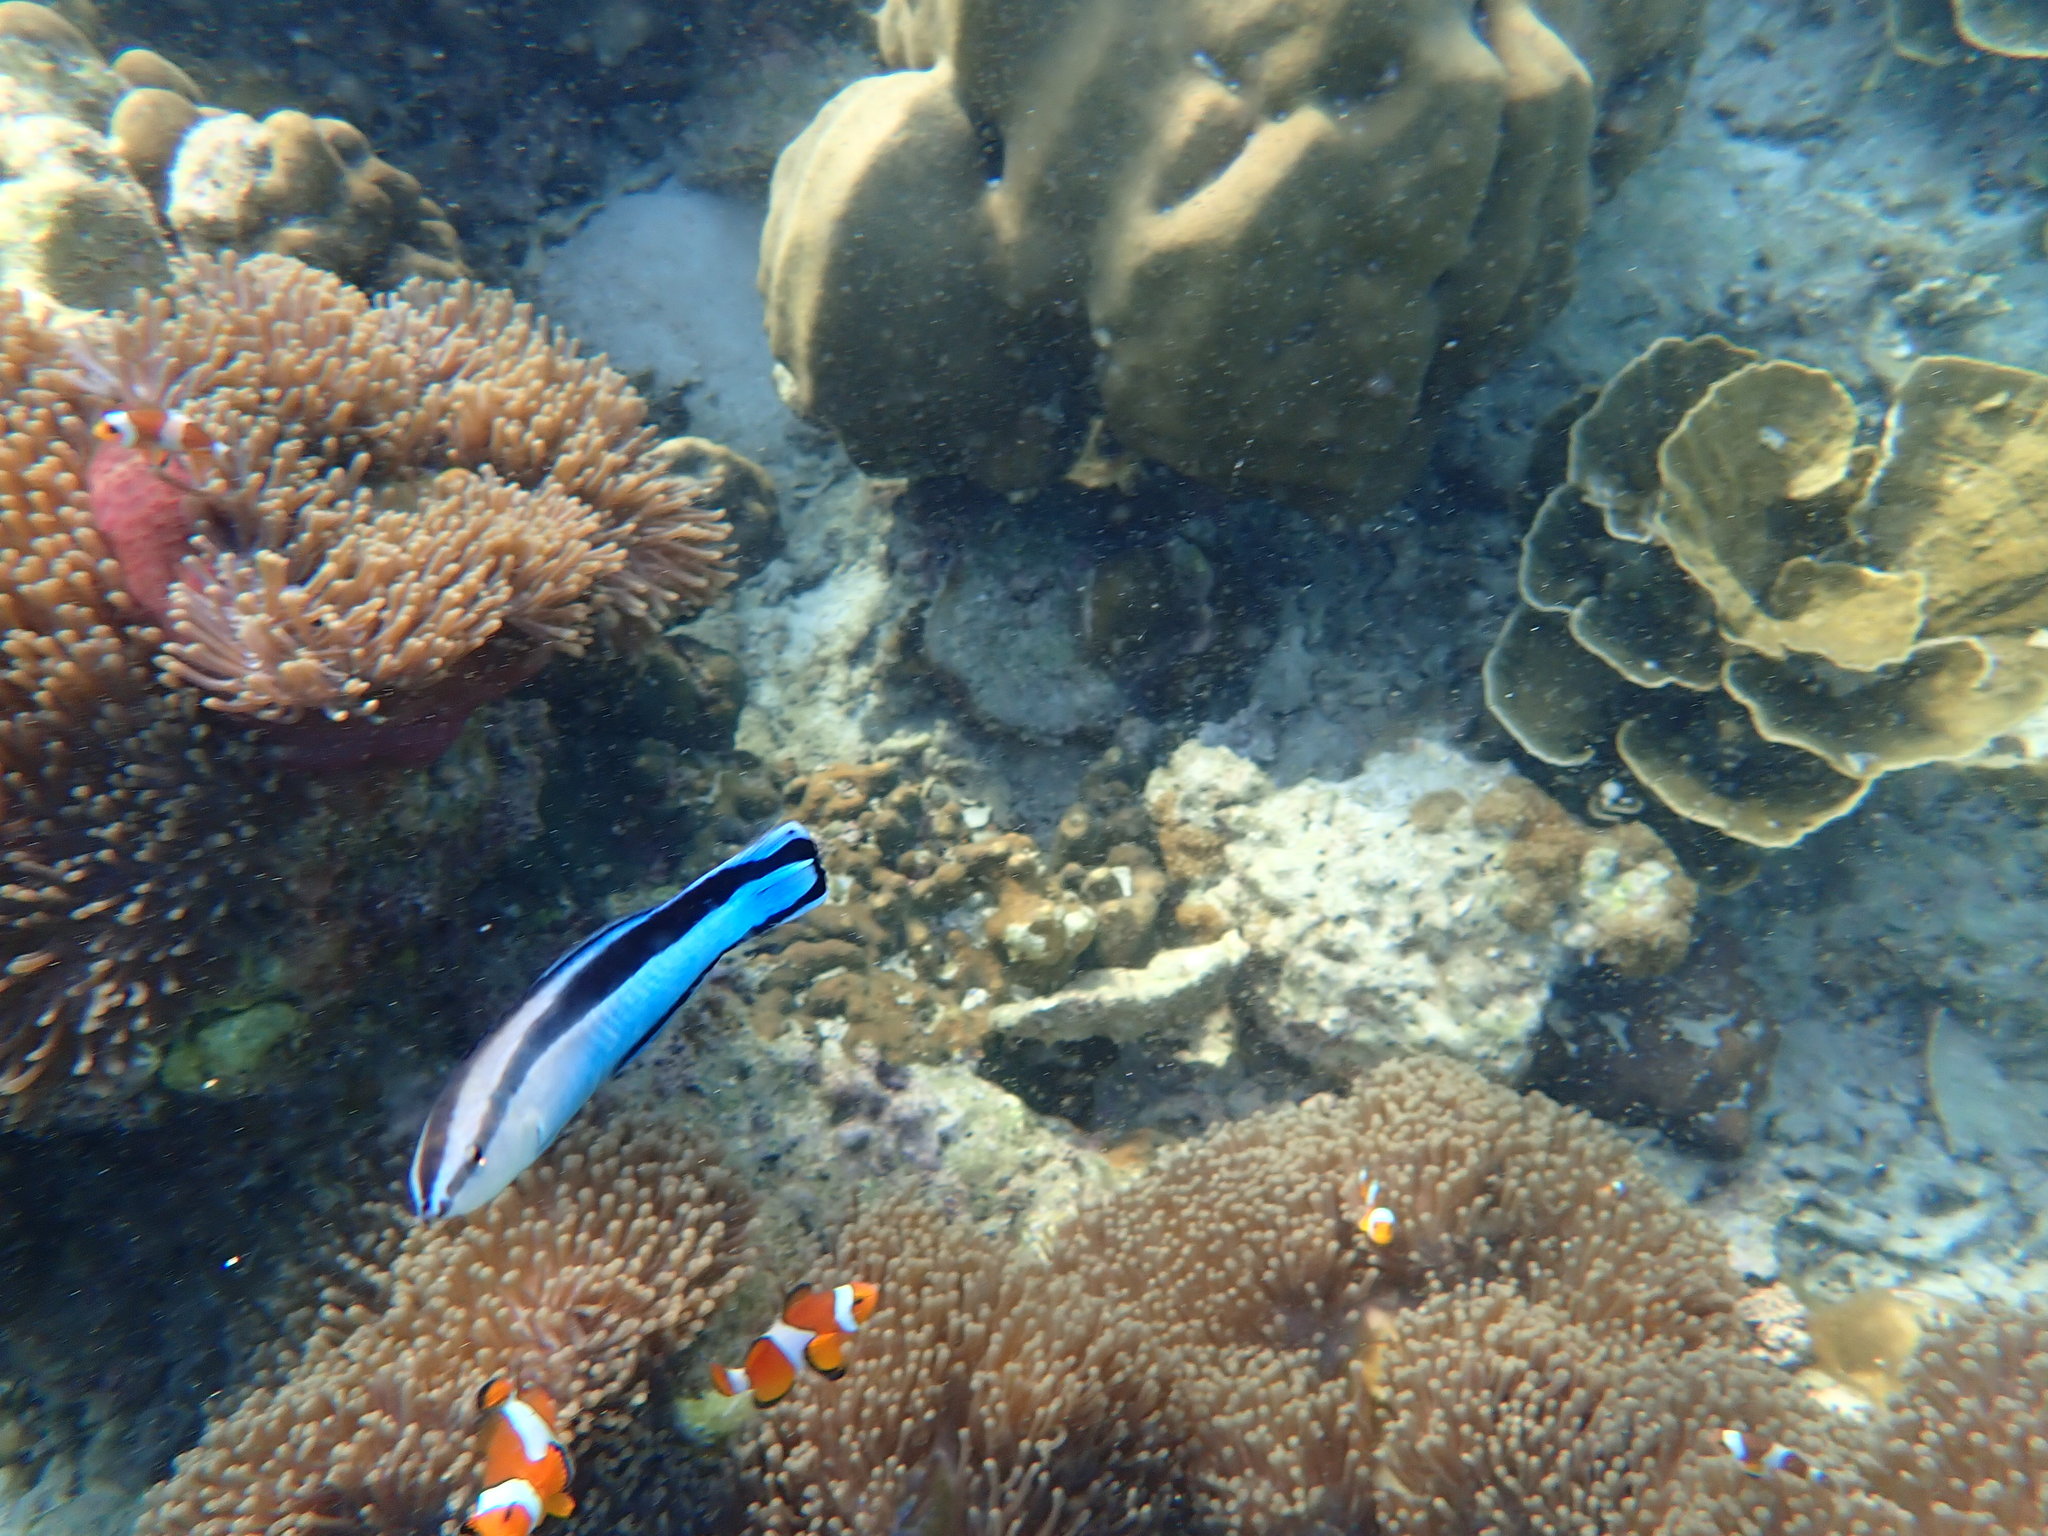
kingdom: Animalia
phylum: Chordata
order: Perciformes
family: Labridae
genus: Labroides
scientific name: Labroides dimidiatus
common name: Blue diesel wrasse
